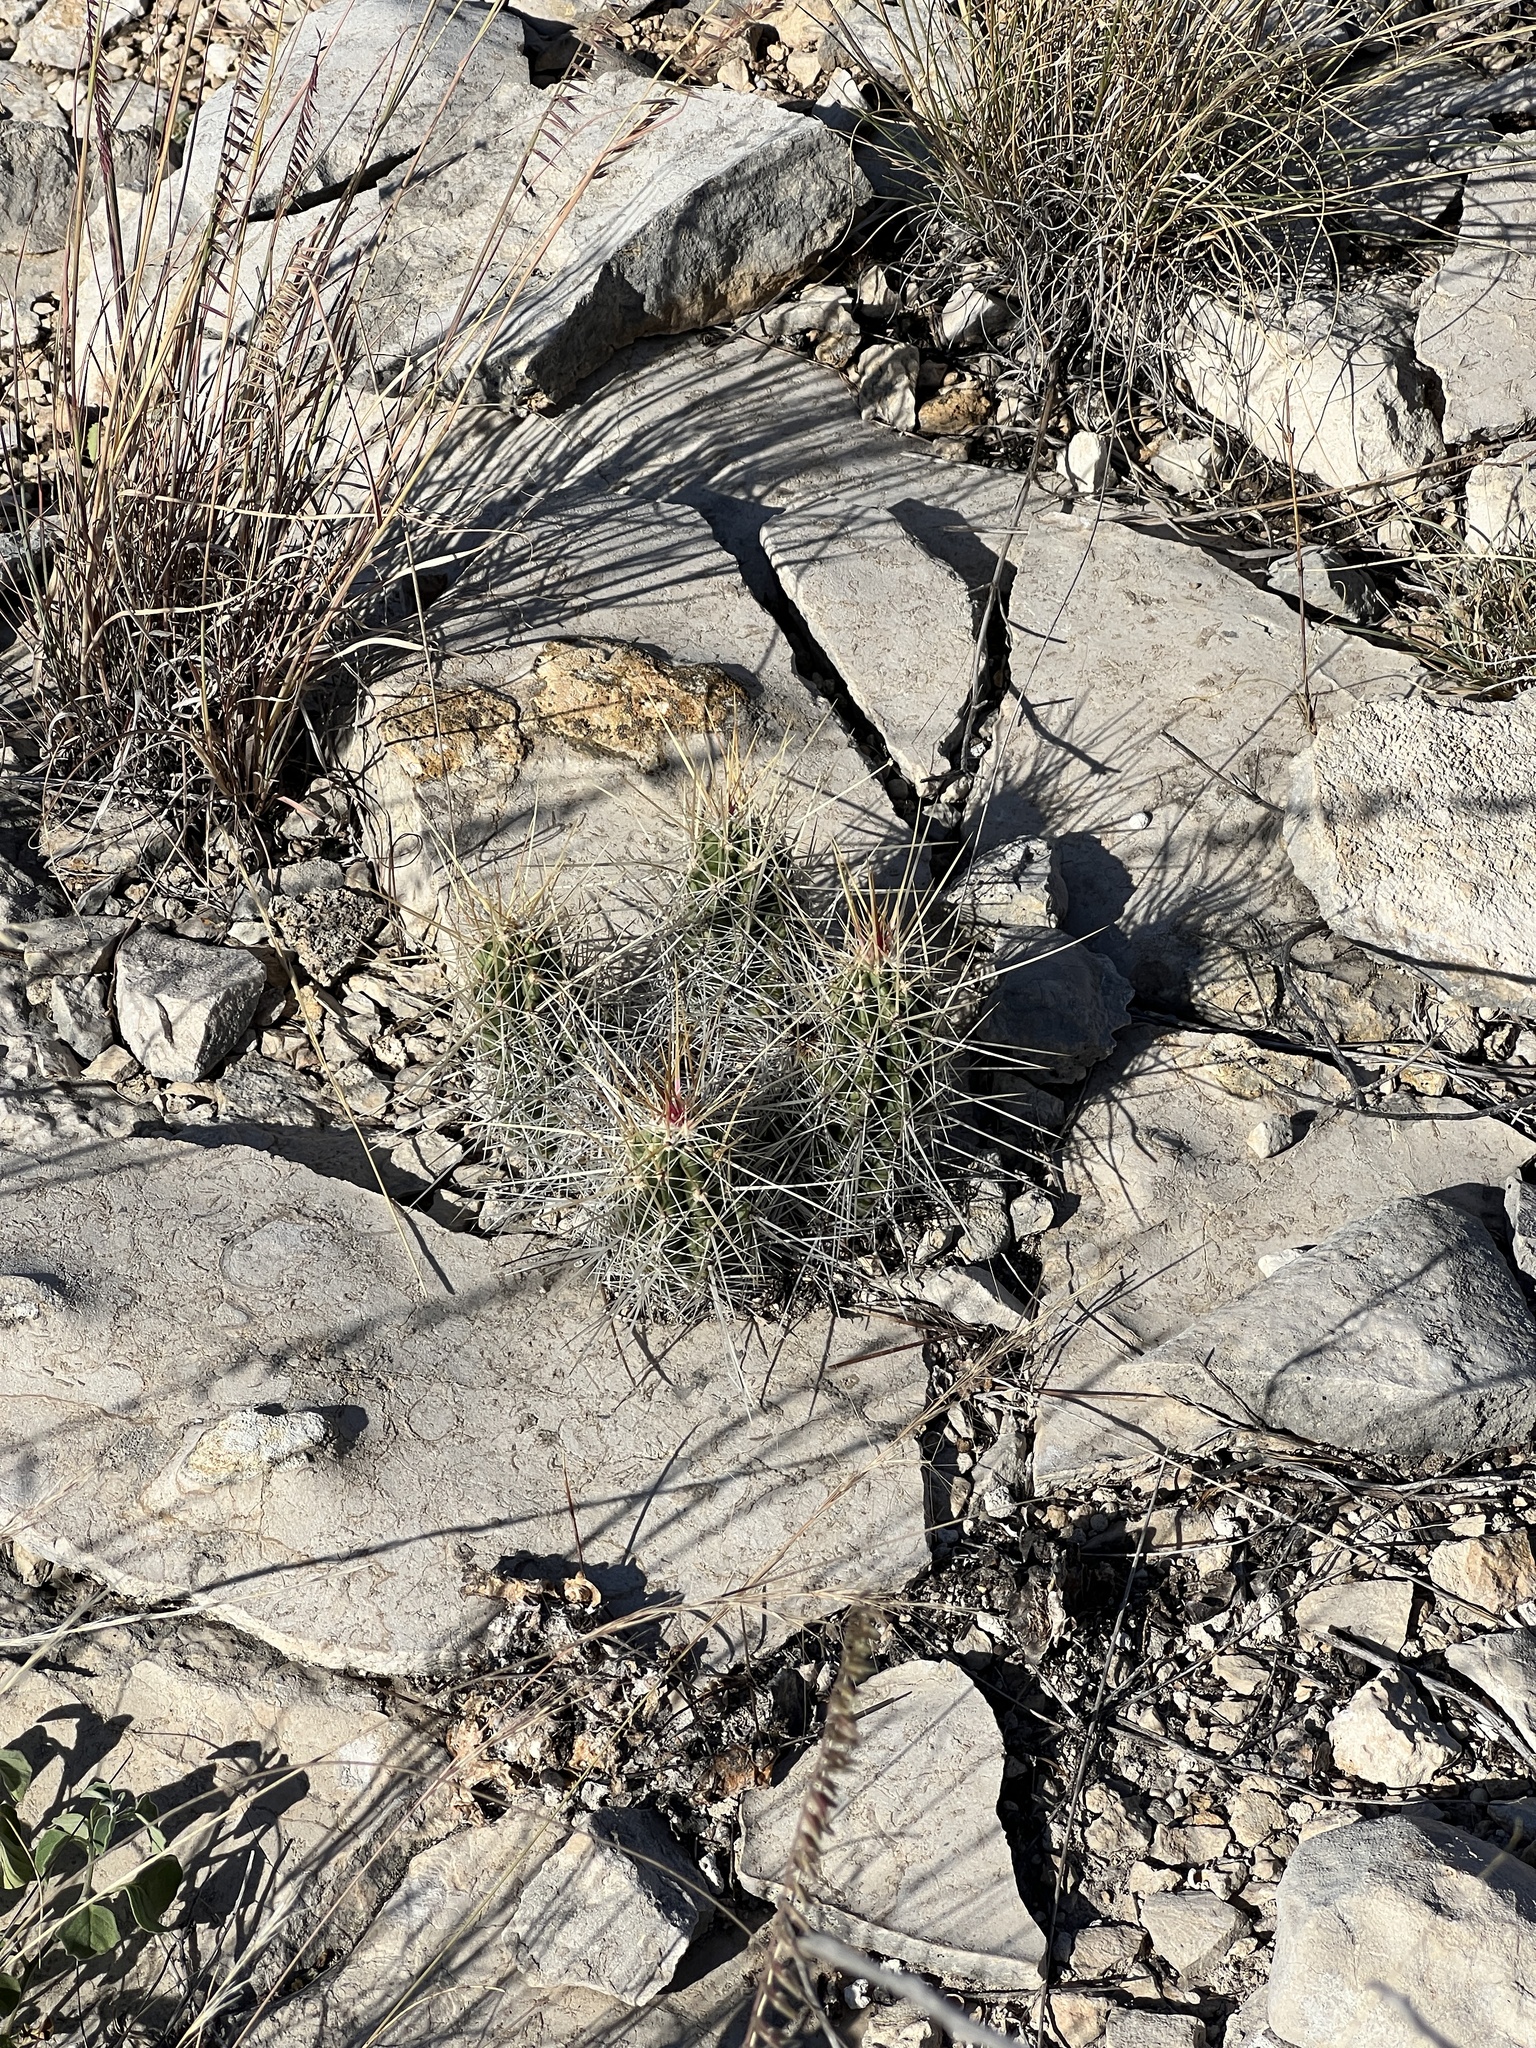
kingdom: Plantae
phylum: Tracheophyta
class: Magnoliopsida
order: Caryophyllales
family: Cactaceae
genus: Echinocereus
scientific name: Echinocereus enneacanthus
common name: Pitaya
